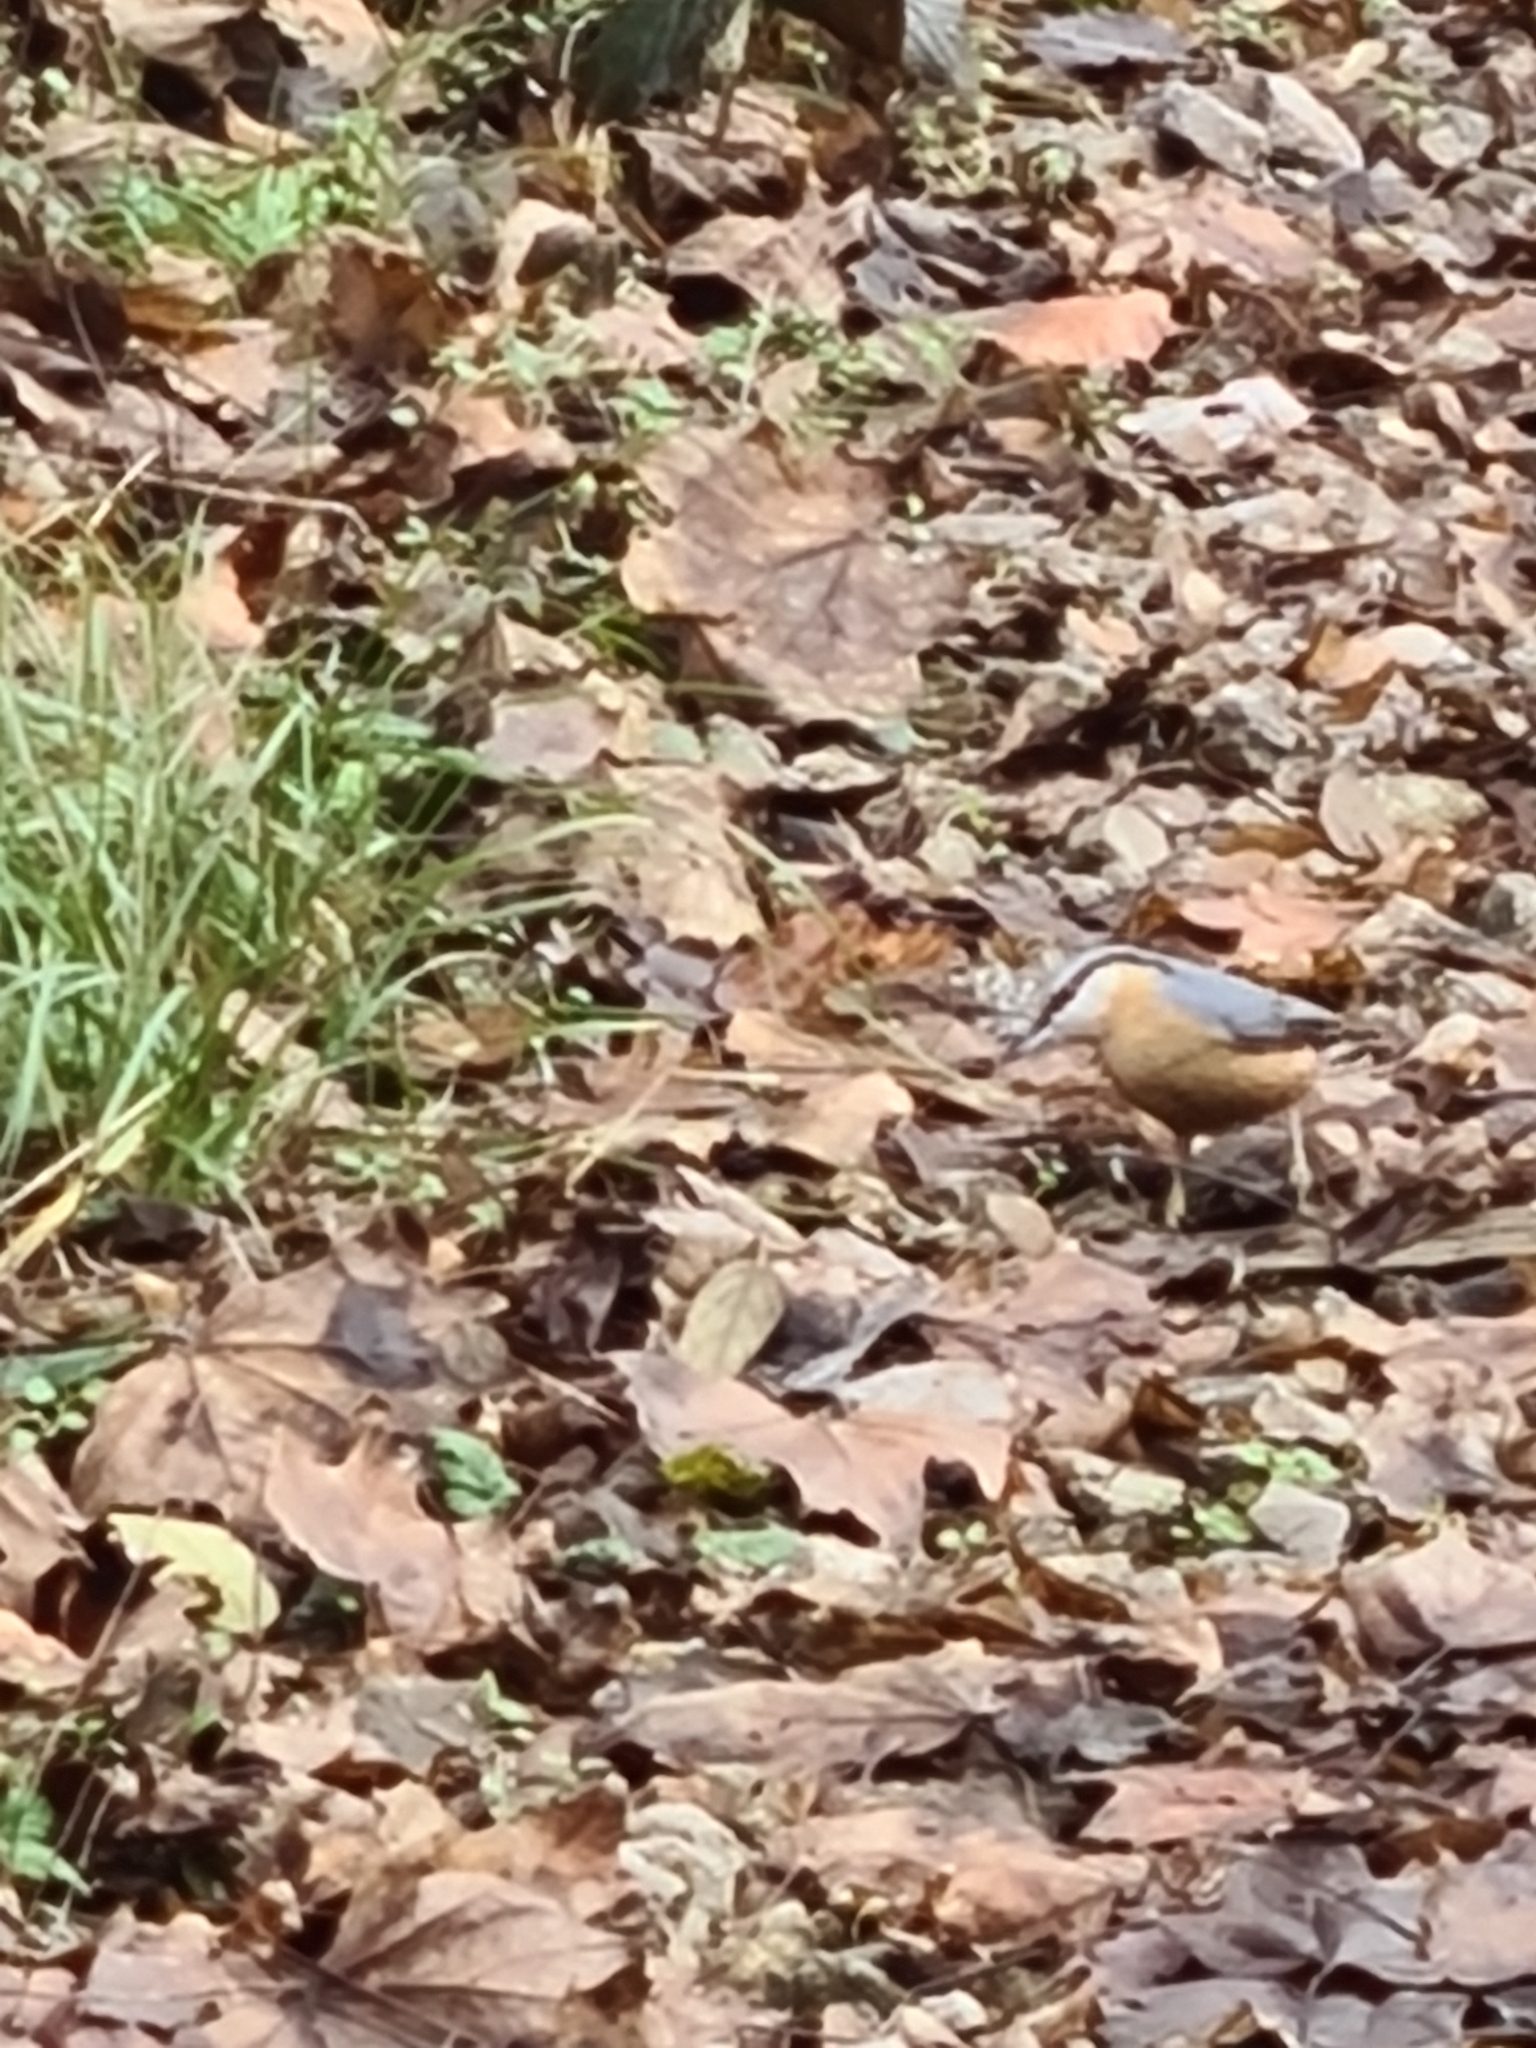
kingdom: Animalia
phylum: Chordata
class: Aves
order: Passeriformes
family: Sittidae
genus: Sitta
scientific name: Sitta europaea
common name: Eurasian nuthatch
